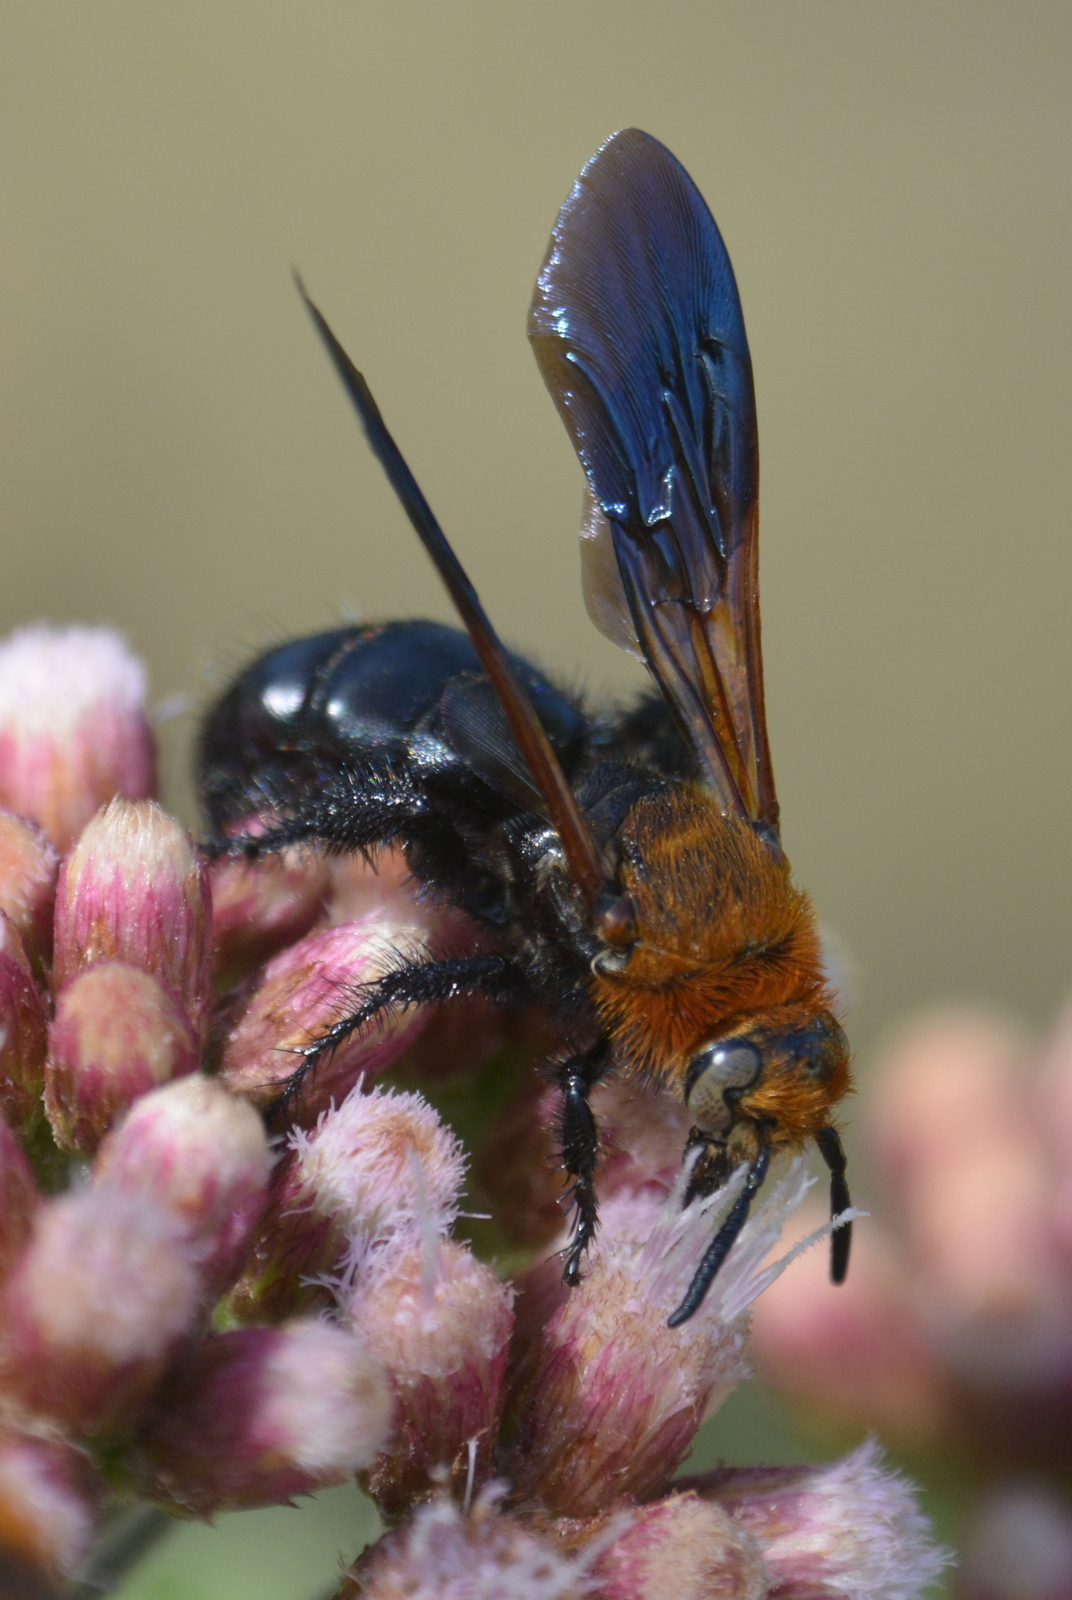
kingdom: Animalia
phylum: Arthropoda
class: Insecta
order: Hymenoptera
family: Scoliidae
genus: Campsomeriella
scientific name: Campsomeriella thoracica
